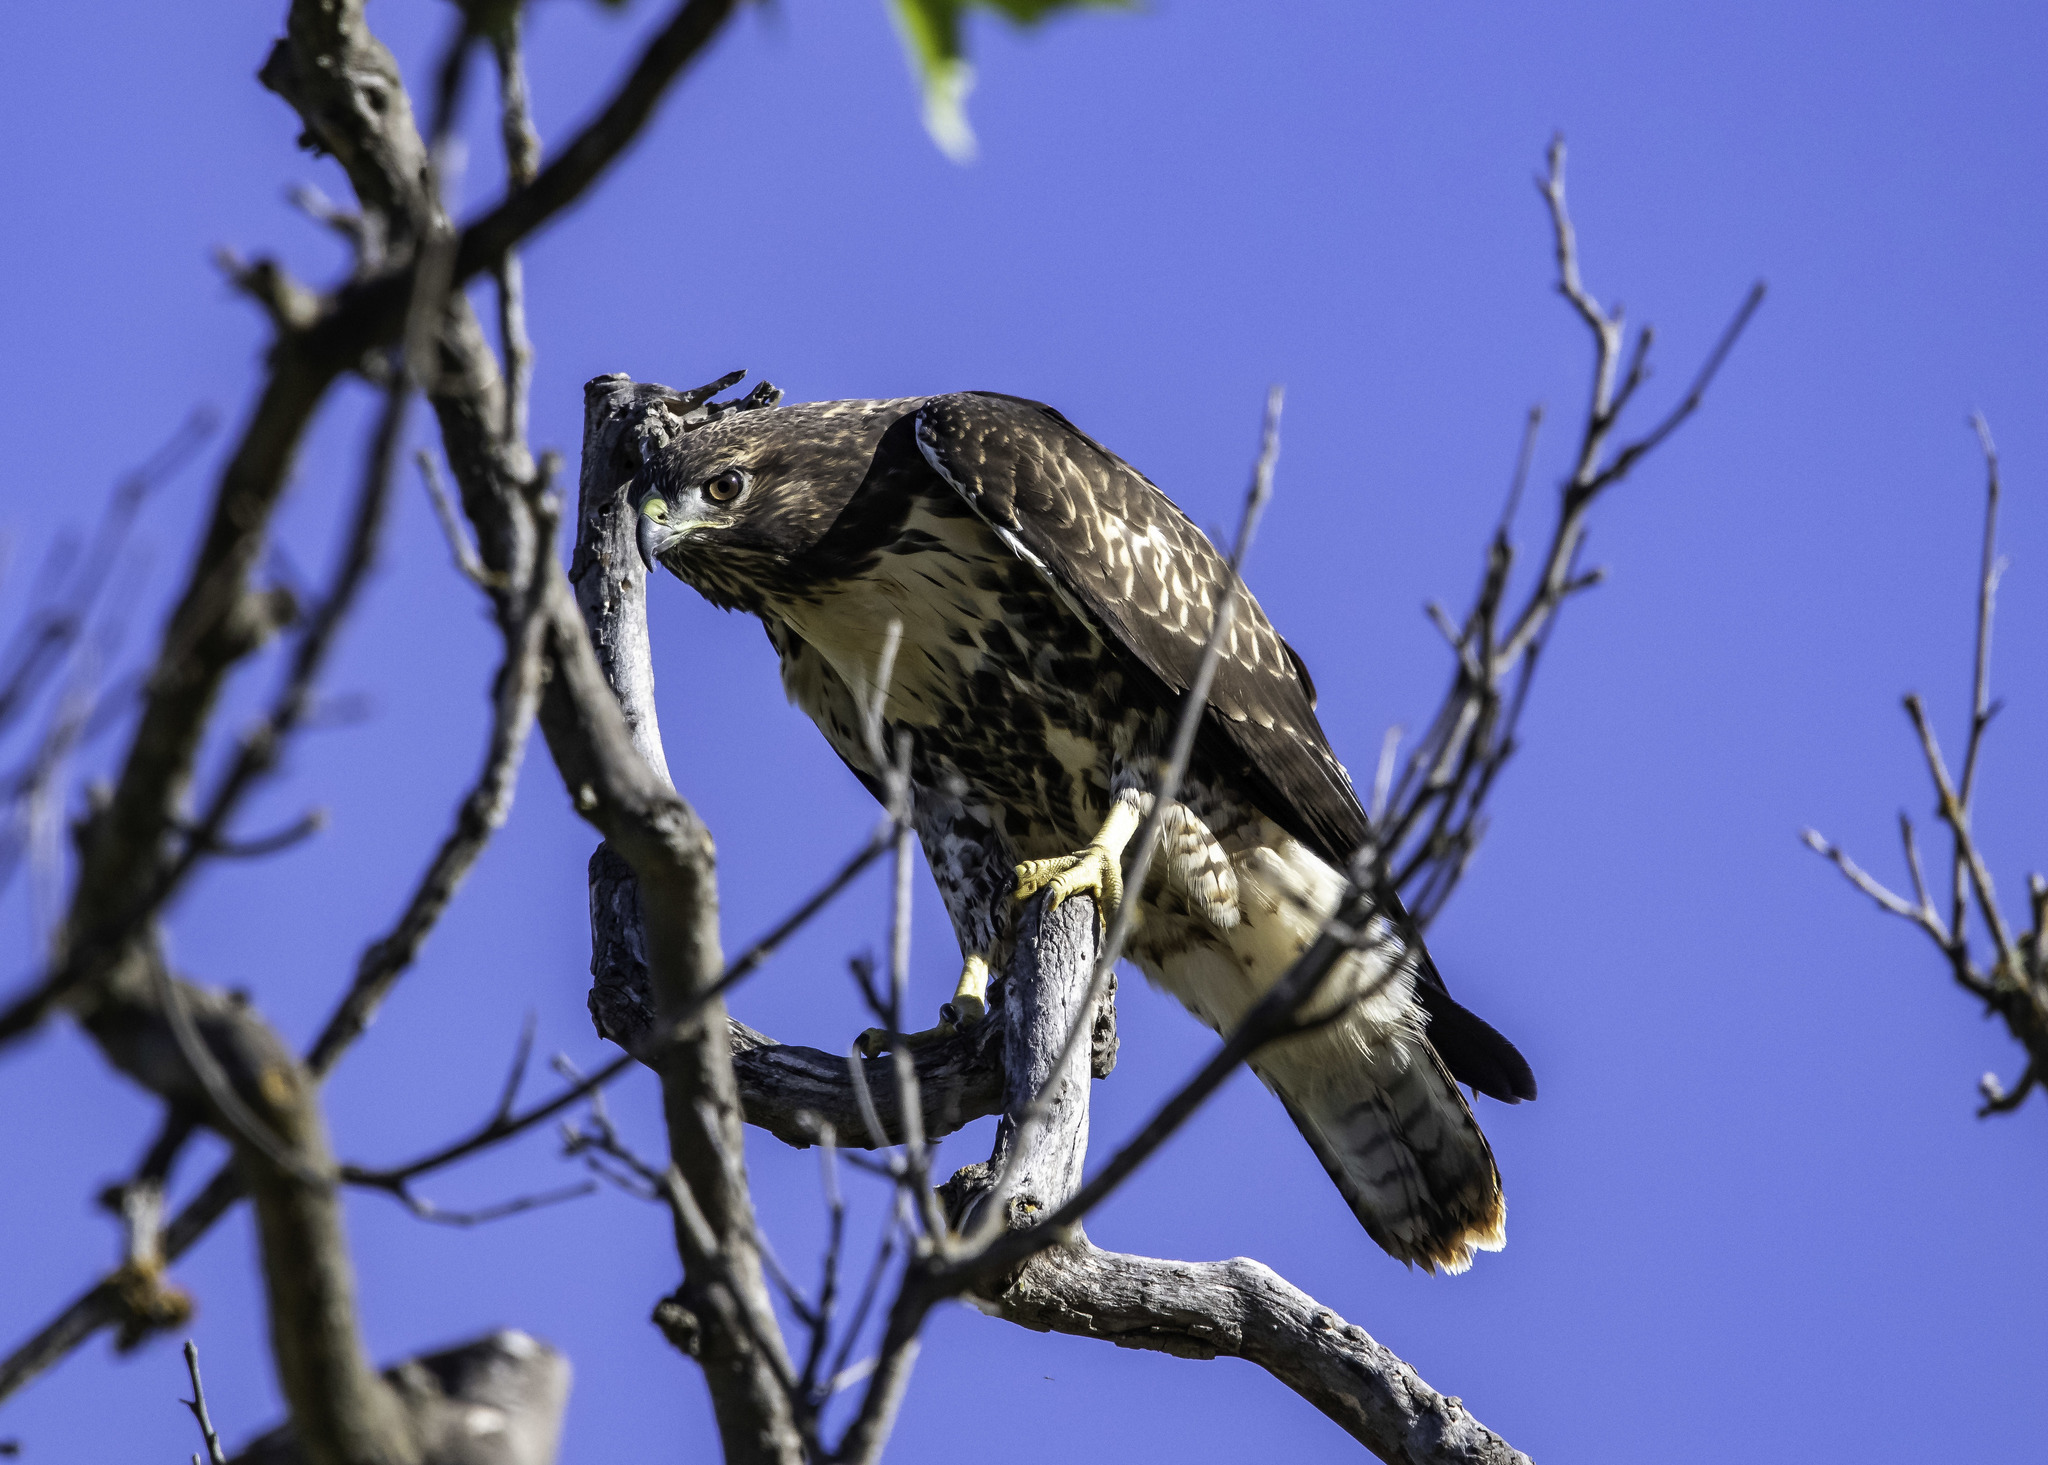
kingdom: Animalia
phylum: Chordata
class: Aves
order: Accipitriformes
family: Accipitridae
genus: Buteo
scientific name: Buteo jamaicensis
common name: Red-tailed hawk
